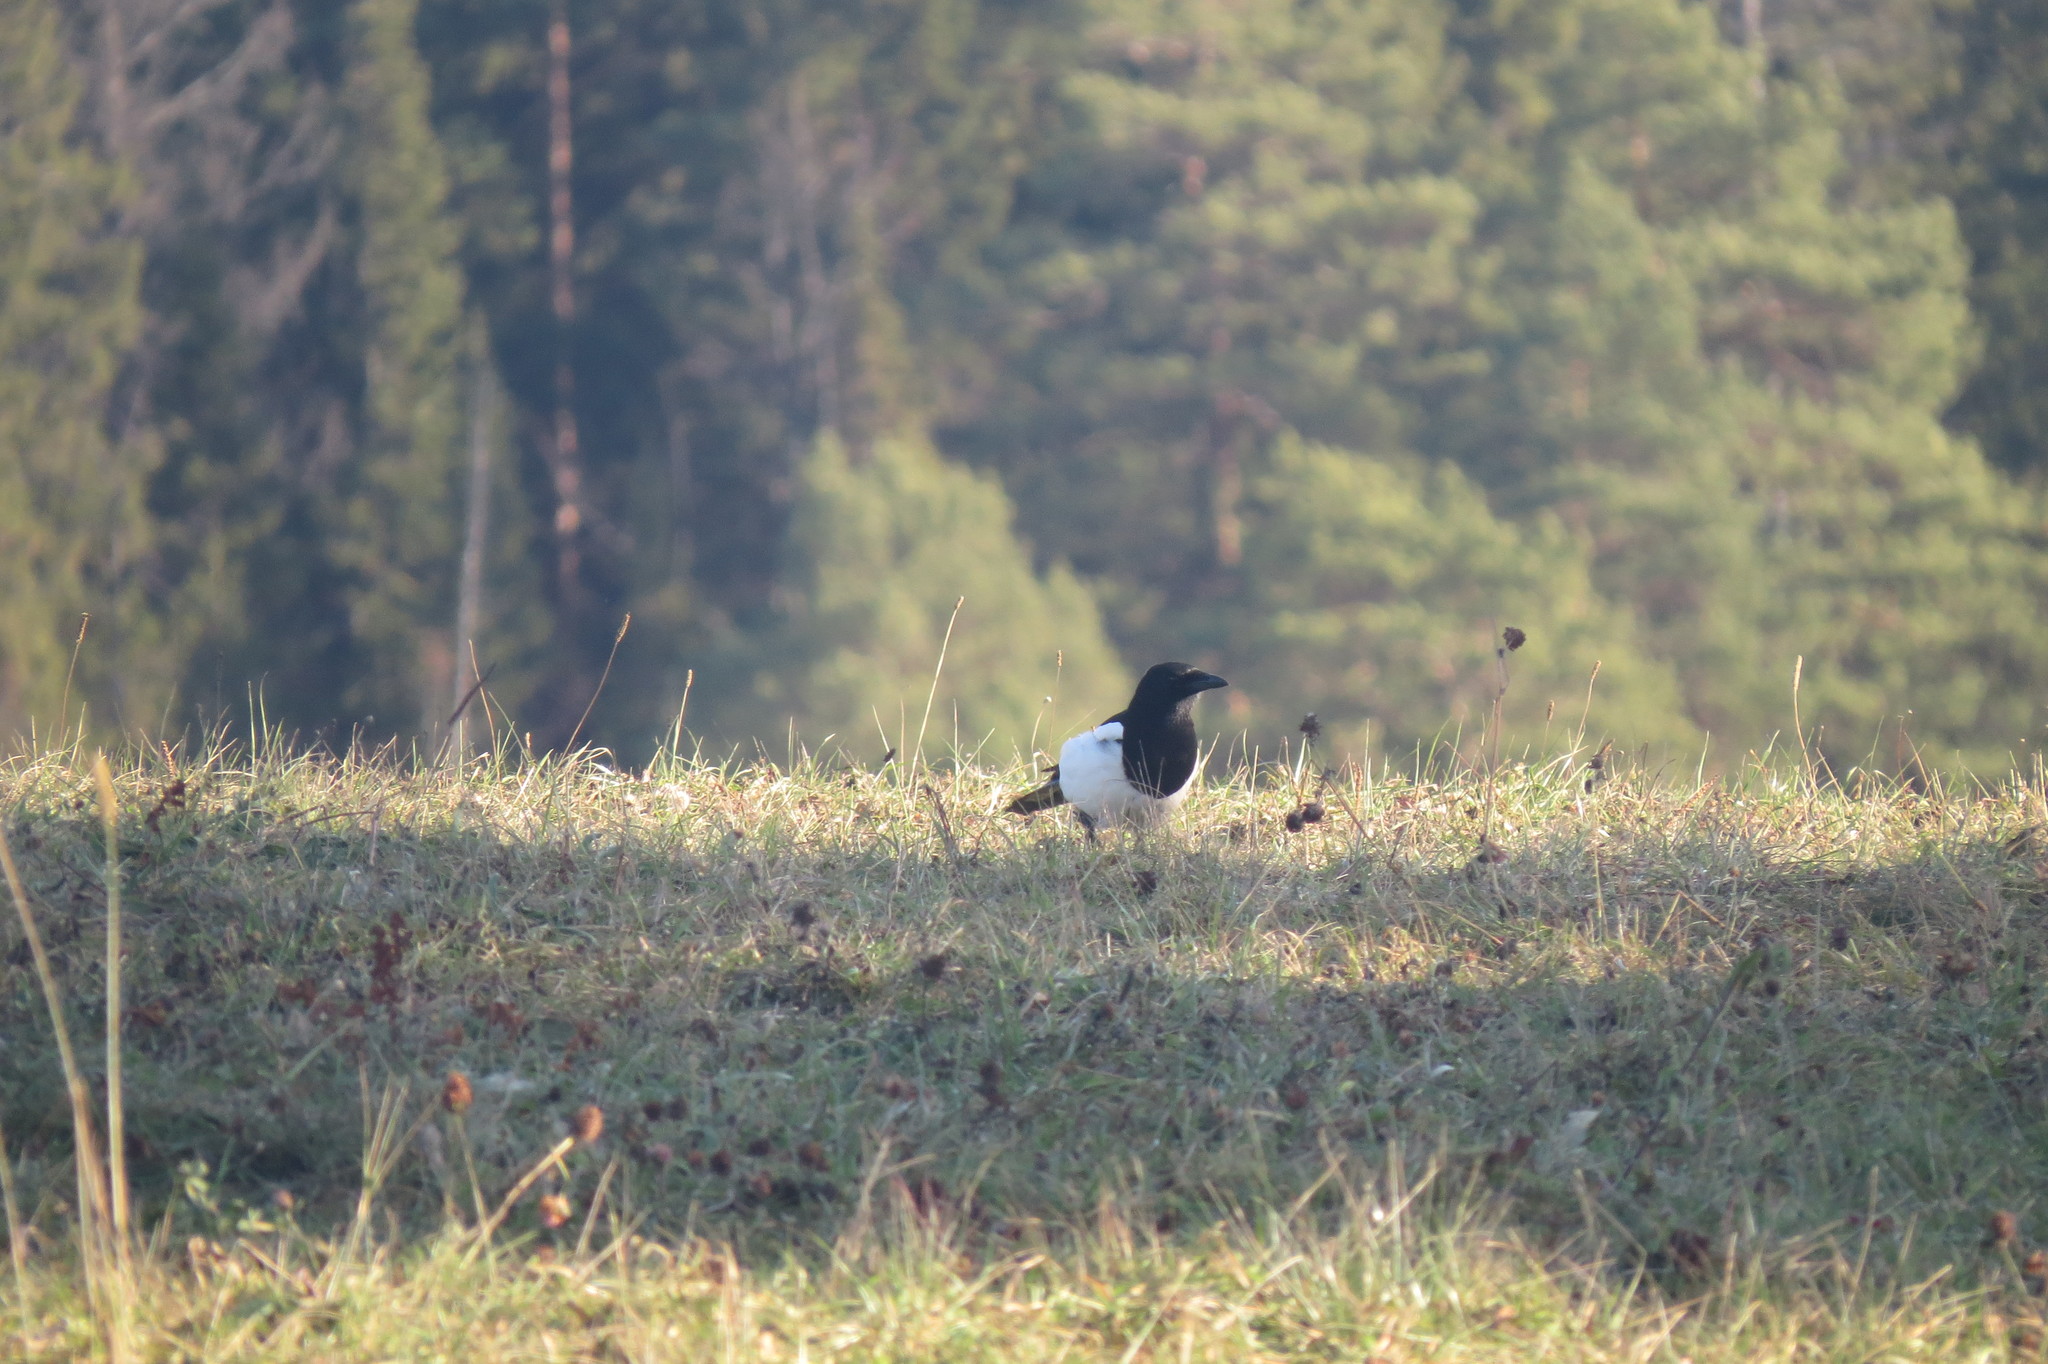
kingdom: Animalia
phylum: Chordata
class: Aves
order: Passeriformes
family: Corvidae
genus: Pica
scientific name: Pica pica
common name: Eurasian magpie
